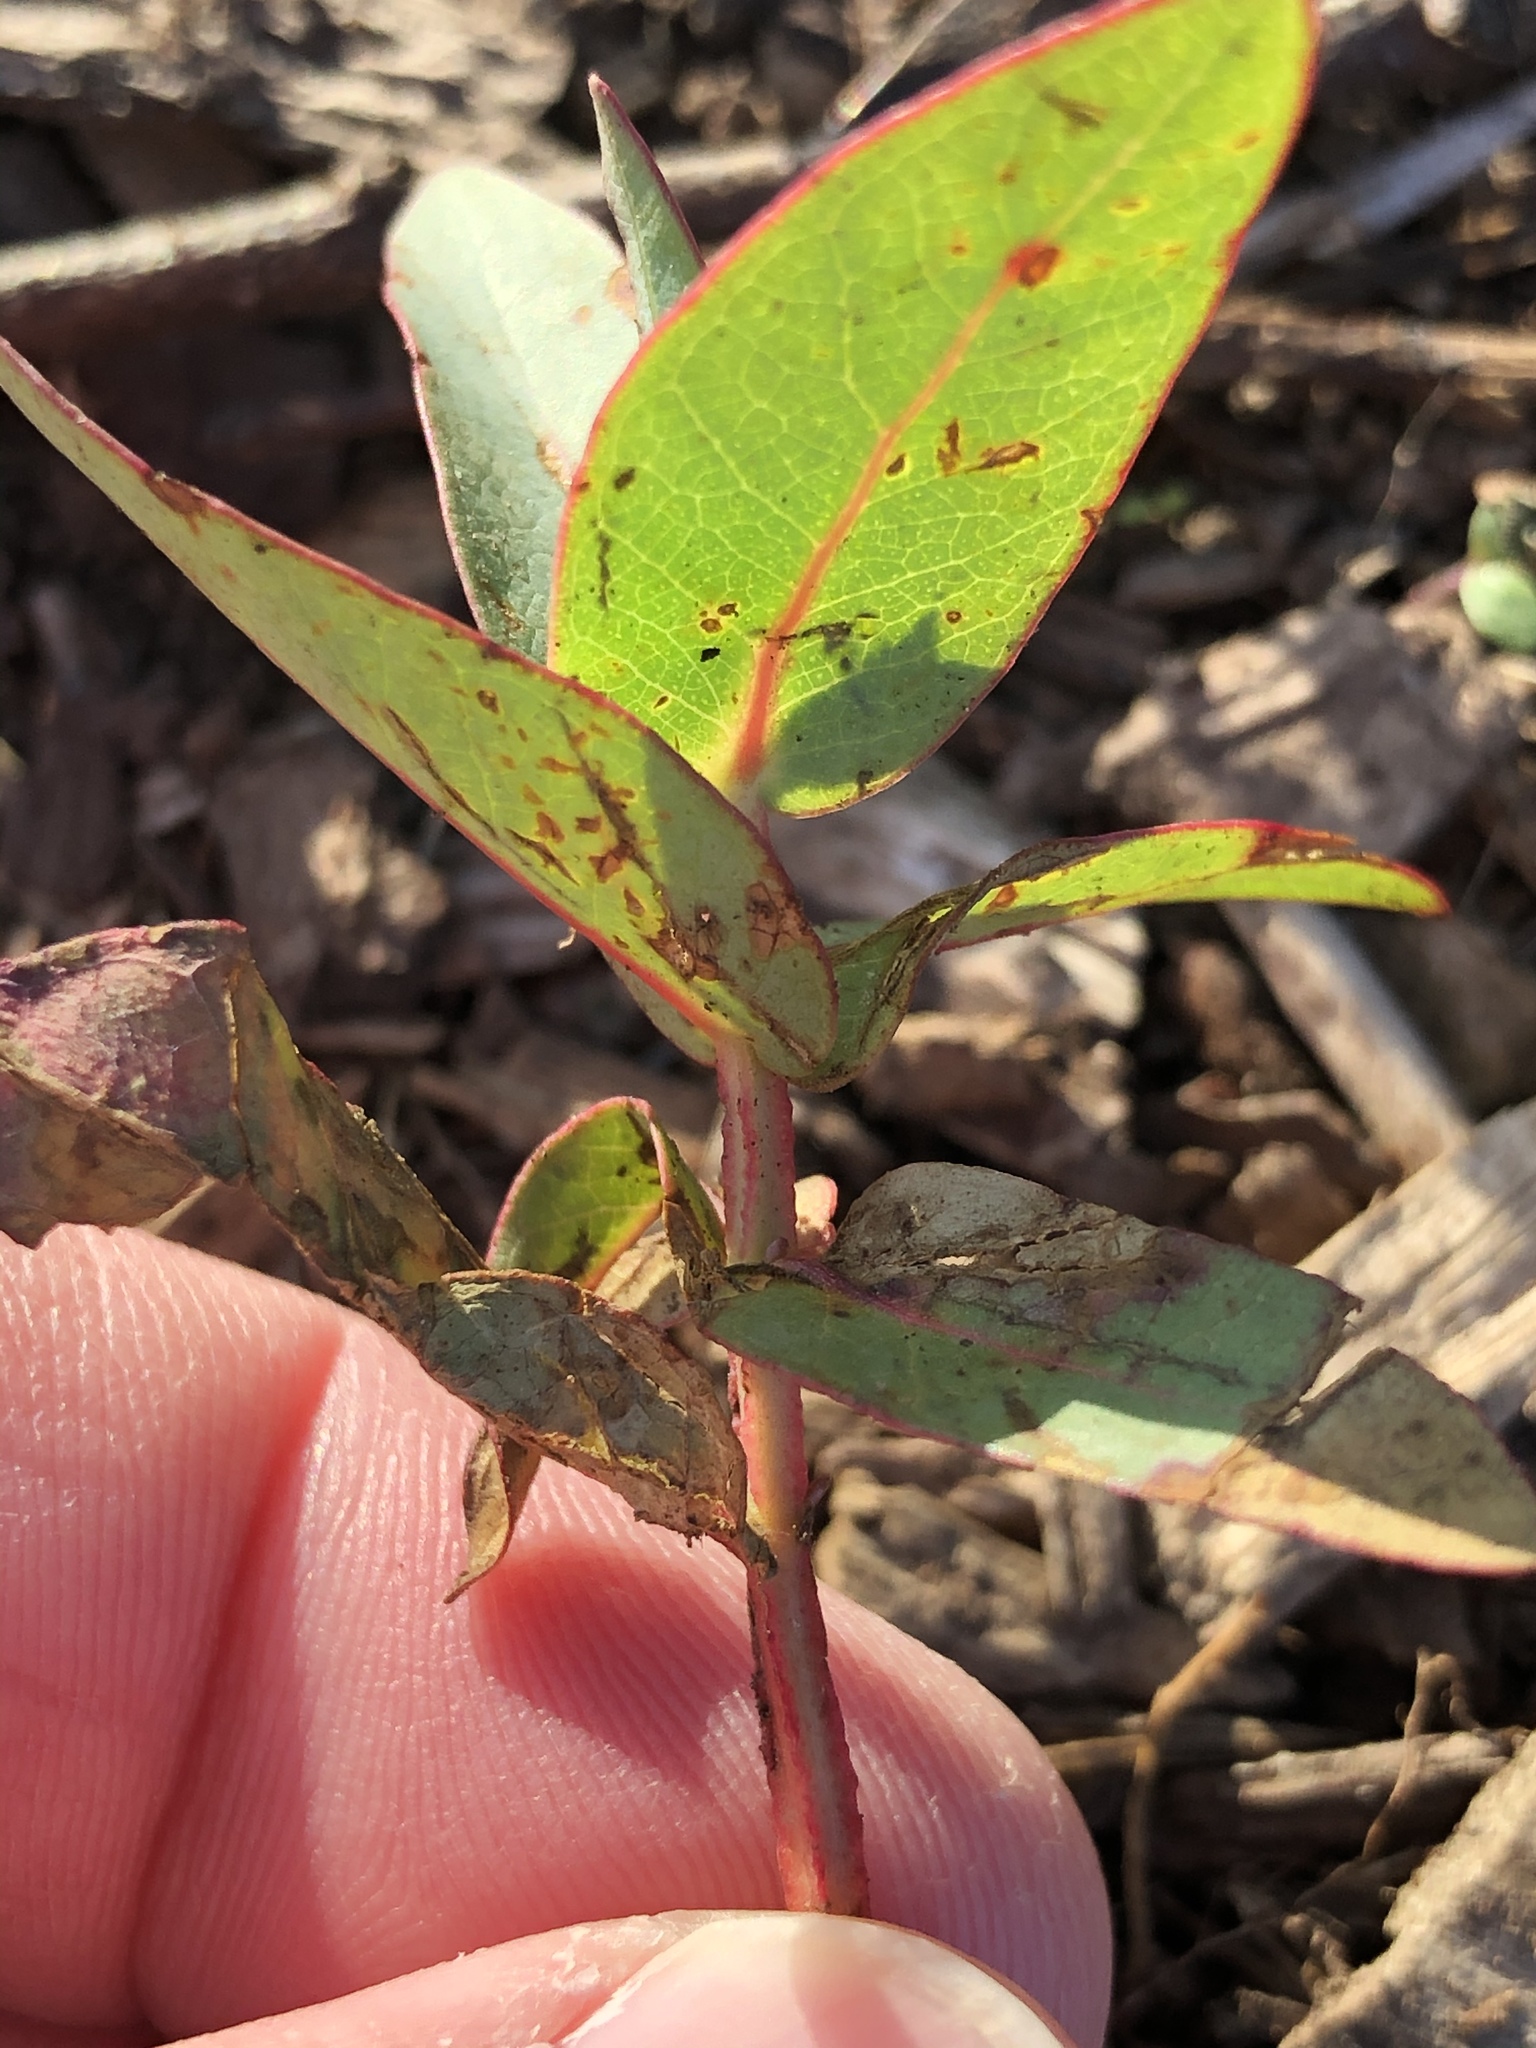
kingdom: Plantae
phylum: Tracheophyta
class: Magnoliopsida
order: Myrtales
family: Myrtaceae
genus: Eucalyptus
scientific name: Eucalyptus
